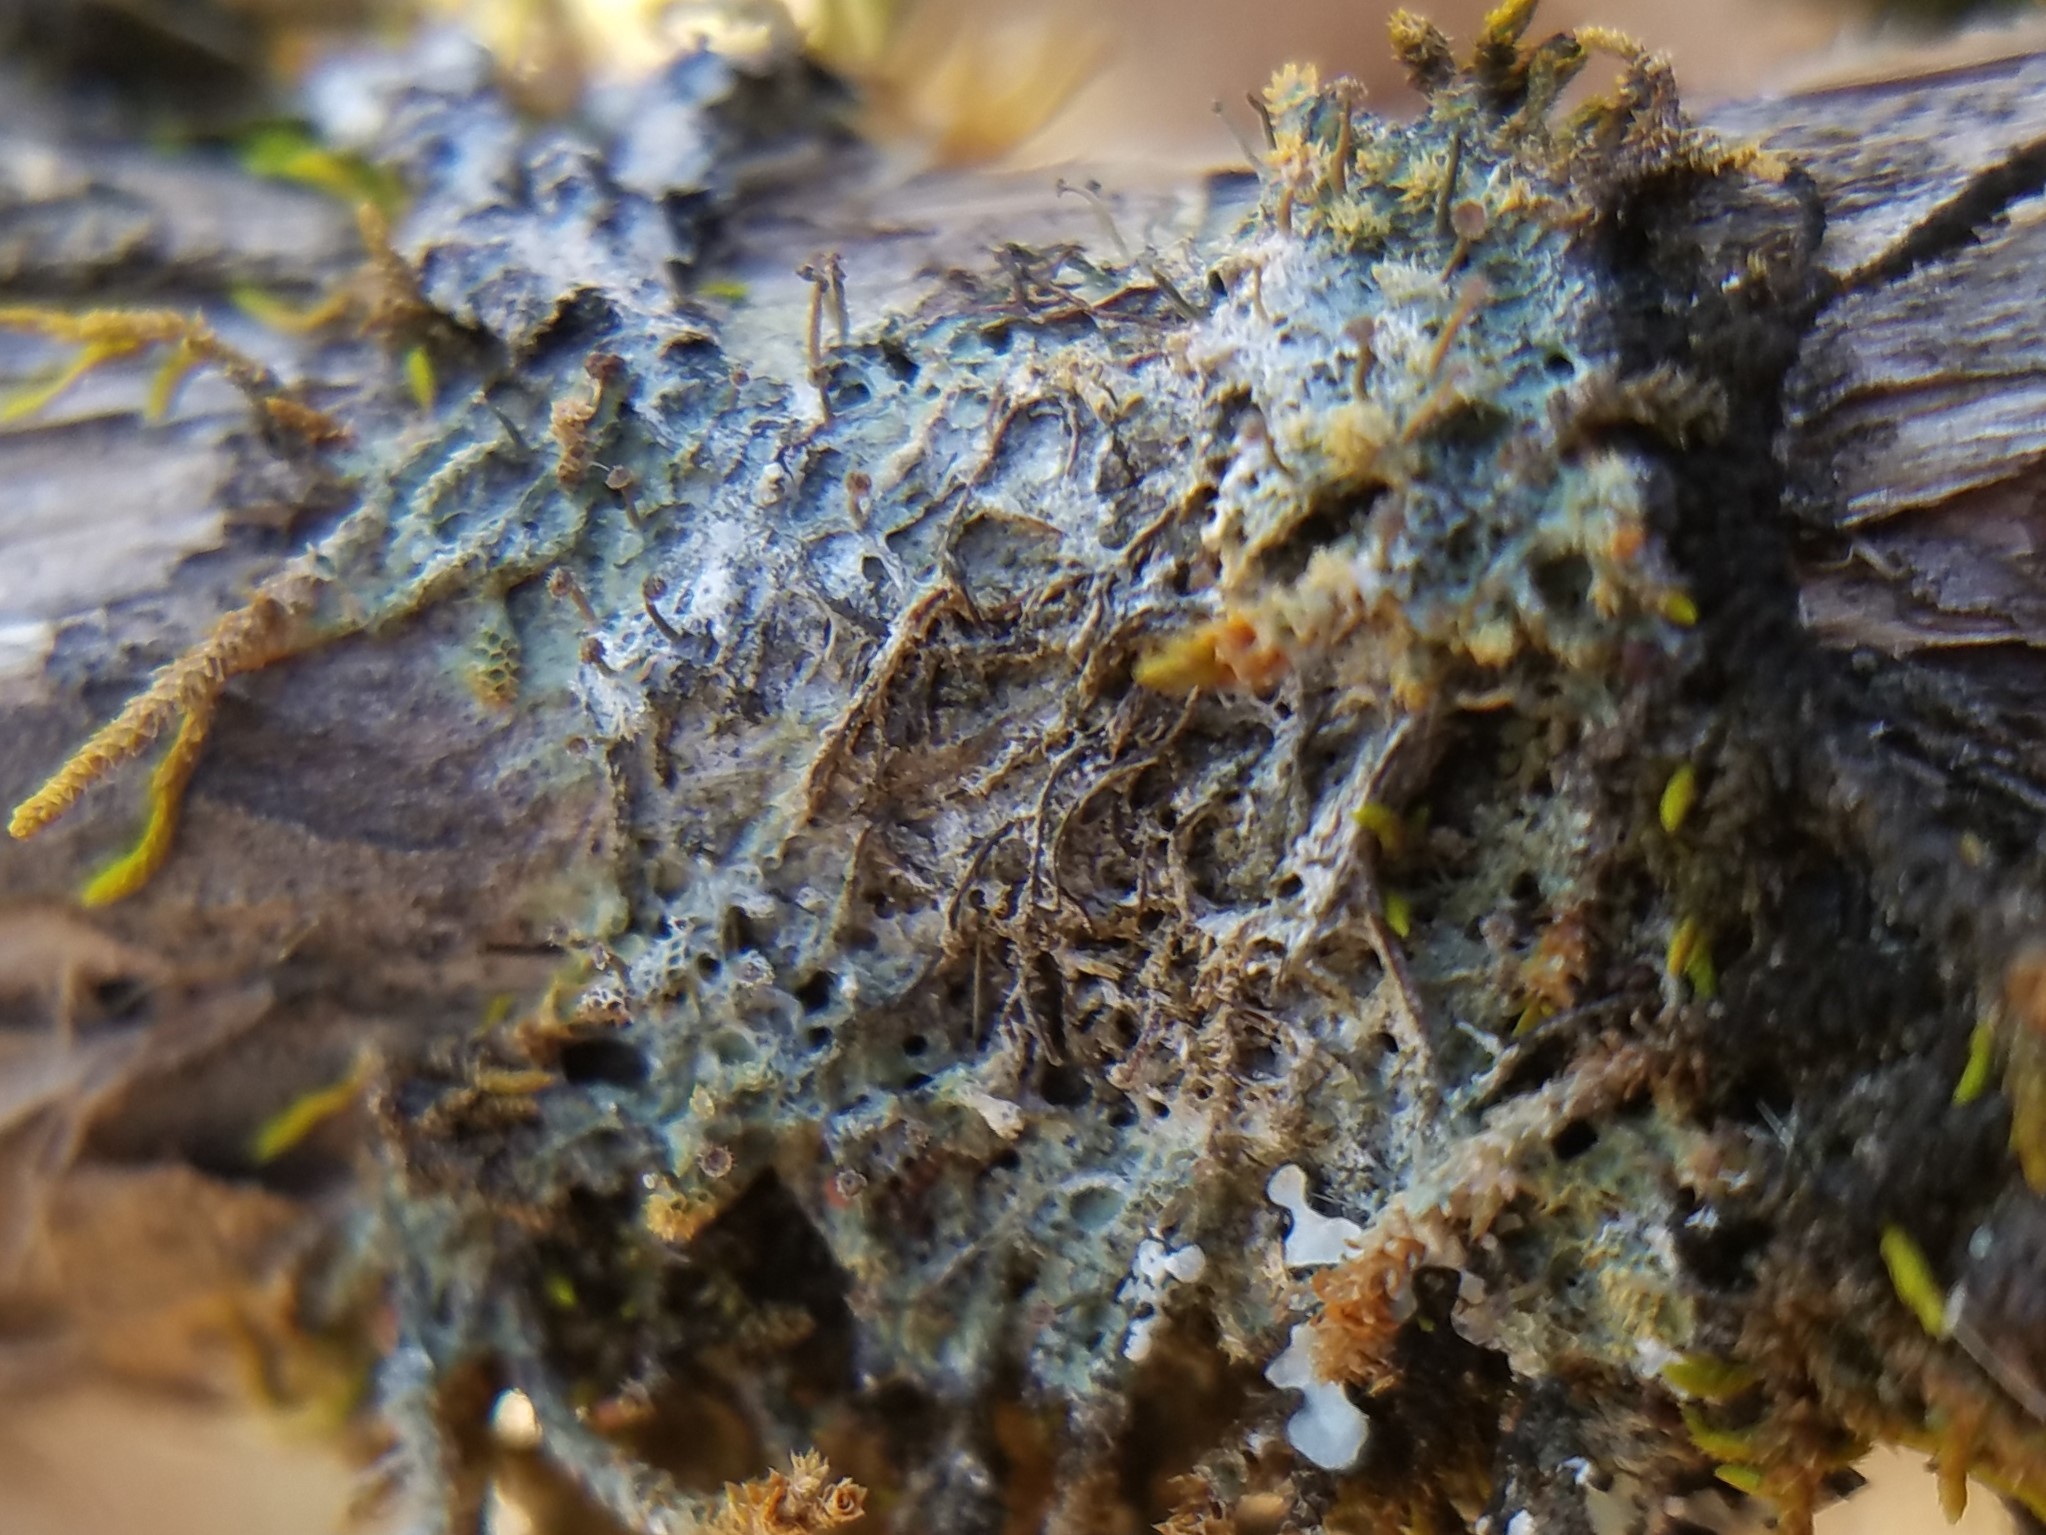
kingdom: Fungi
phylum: Ascomycota
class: Lecanoromycetes
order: Ostropales
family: Gomphillaceae
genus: Gomphillus
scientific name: Gomphillus americanus
